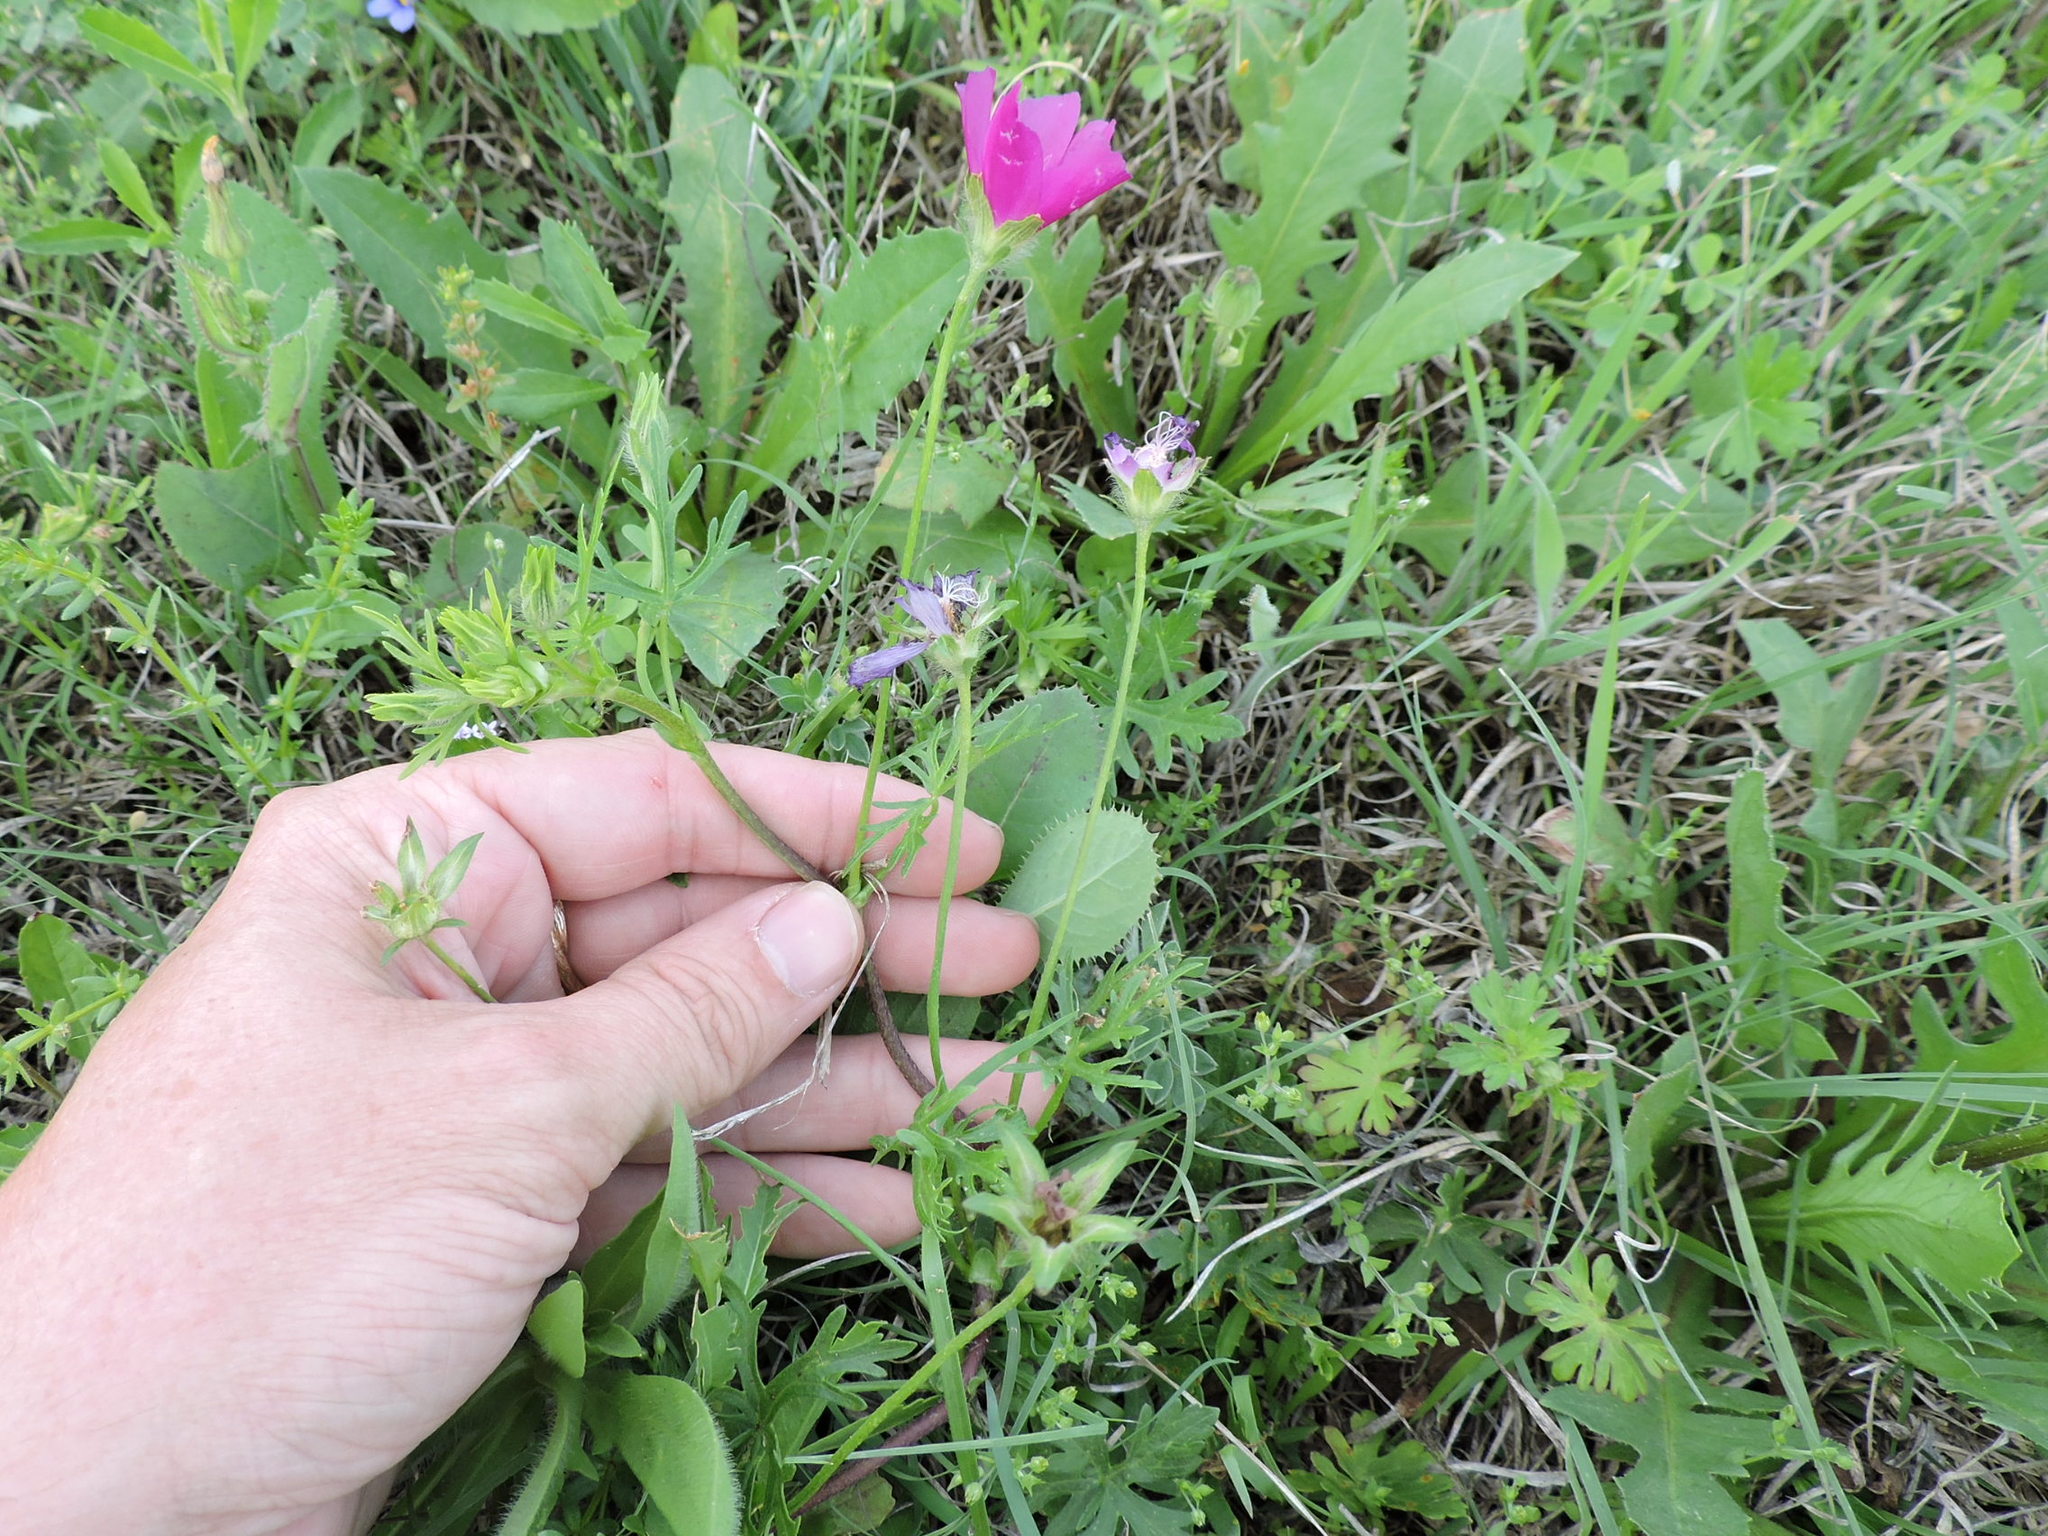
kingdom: Plantae
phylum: Tracheophyta
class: Magnoliopsida
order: Malvales
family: Malvaceae
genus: Callirhoe
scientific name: Callirhoe involucrata
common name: Purple poppy-mallow
